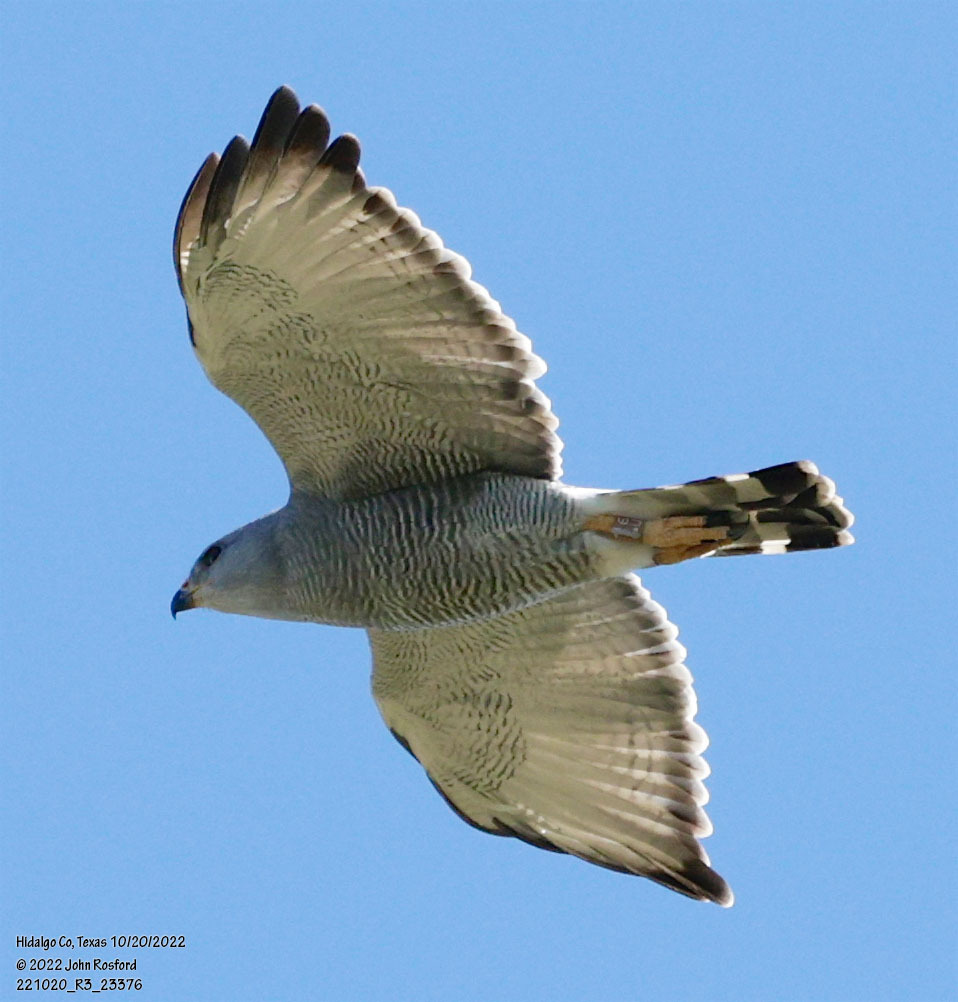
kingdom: Animalia
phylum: Chordata
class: Aves
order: Accipitriformes
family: Accipitridae
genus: Buteo
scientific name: Buteo nitidus
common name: Grey-lined hawk
